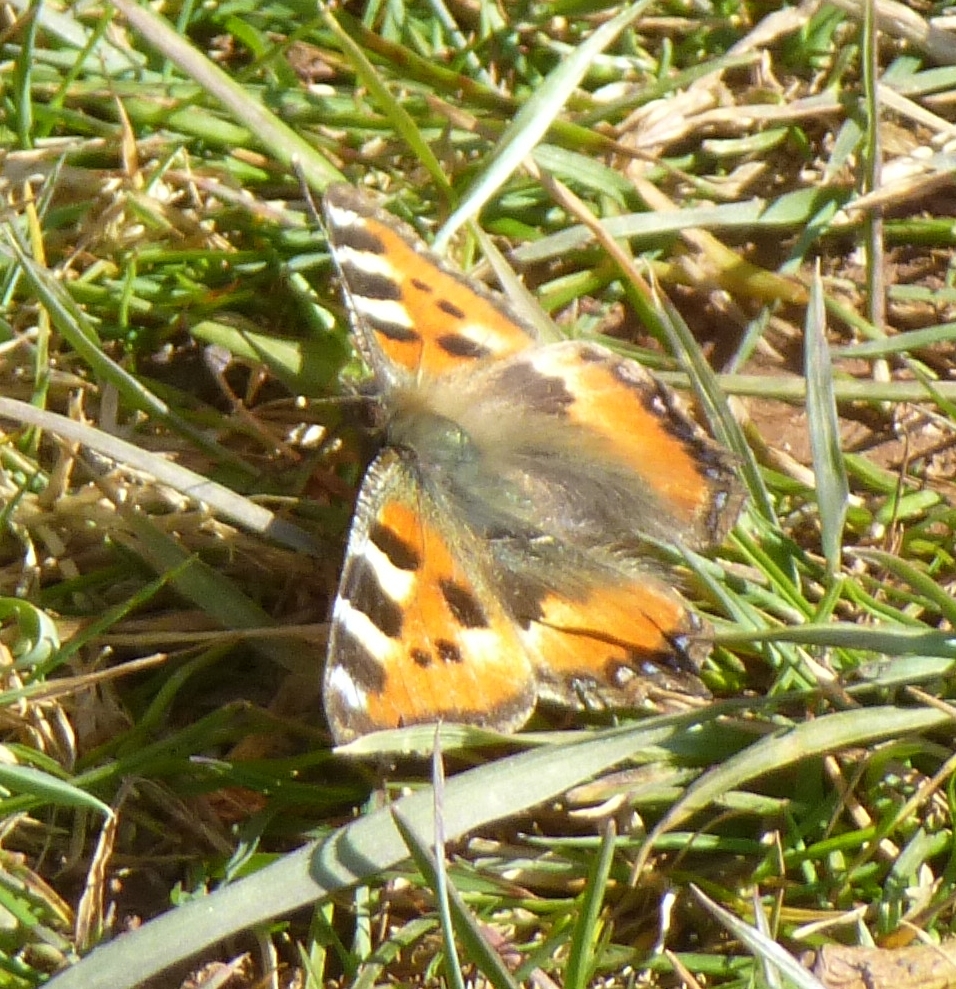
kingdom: Animalia
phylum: Arthropoda
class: Insecta
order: Lepidoptera
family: Nymphalidae
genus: Aglais
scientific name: Aglais urticae
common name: Small tortoiseshell
